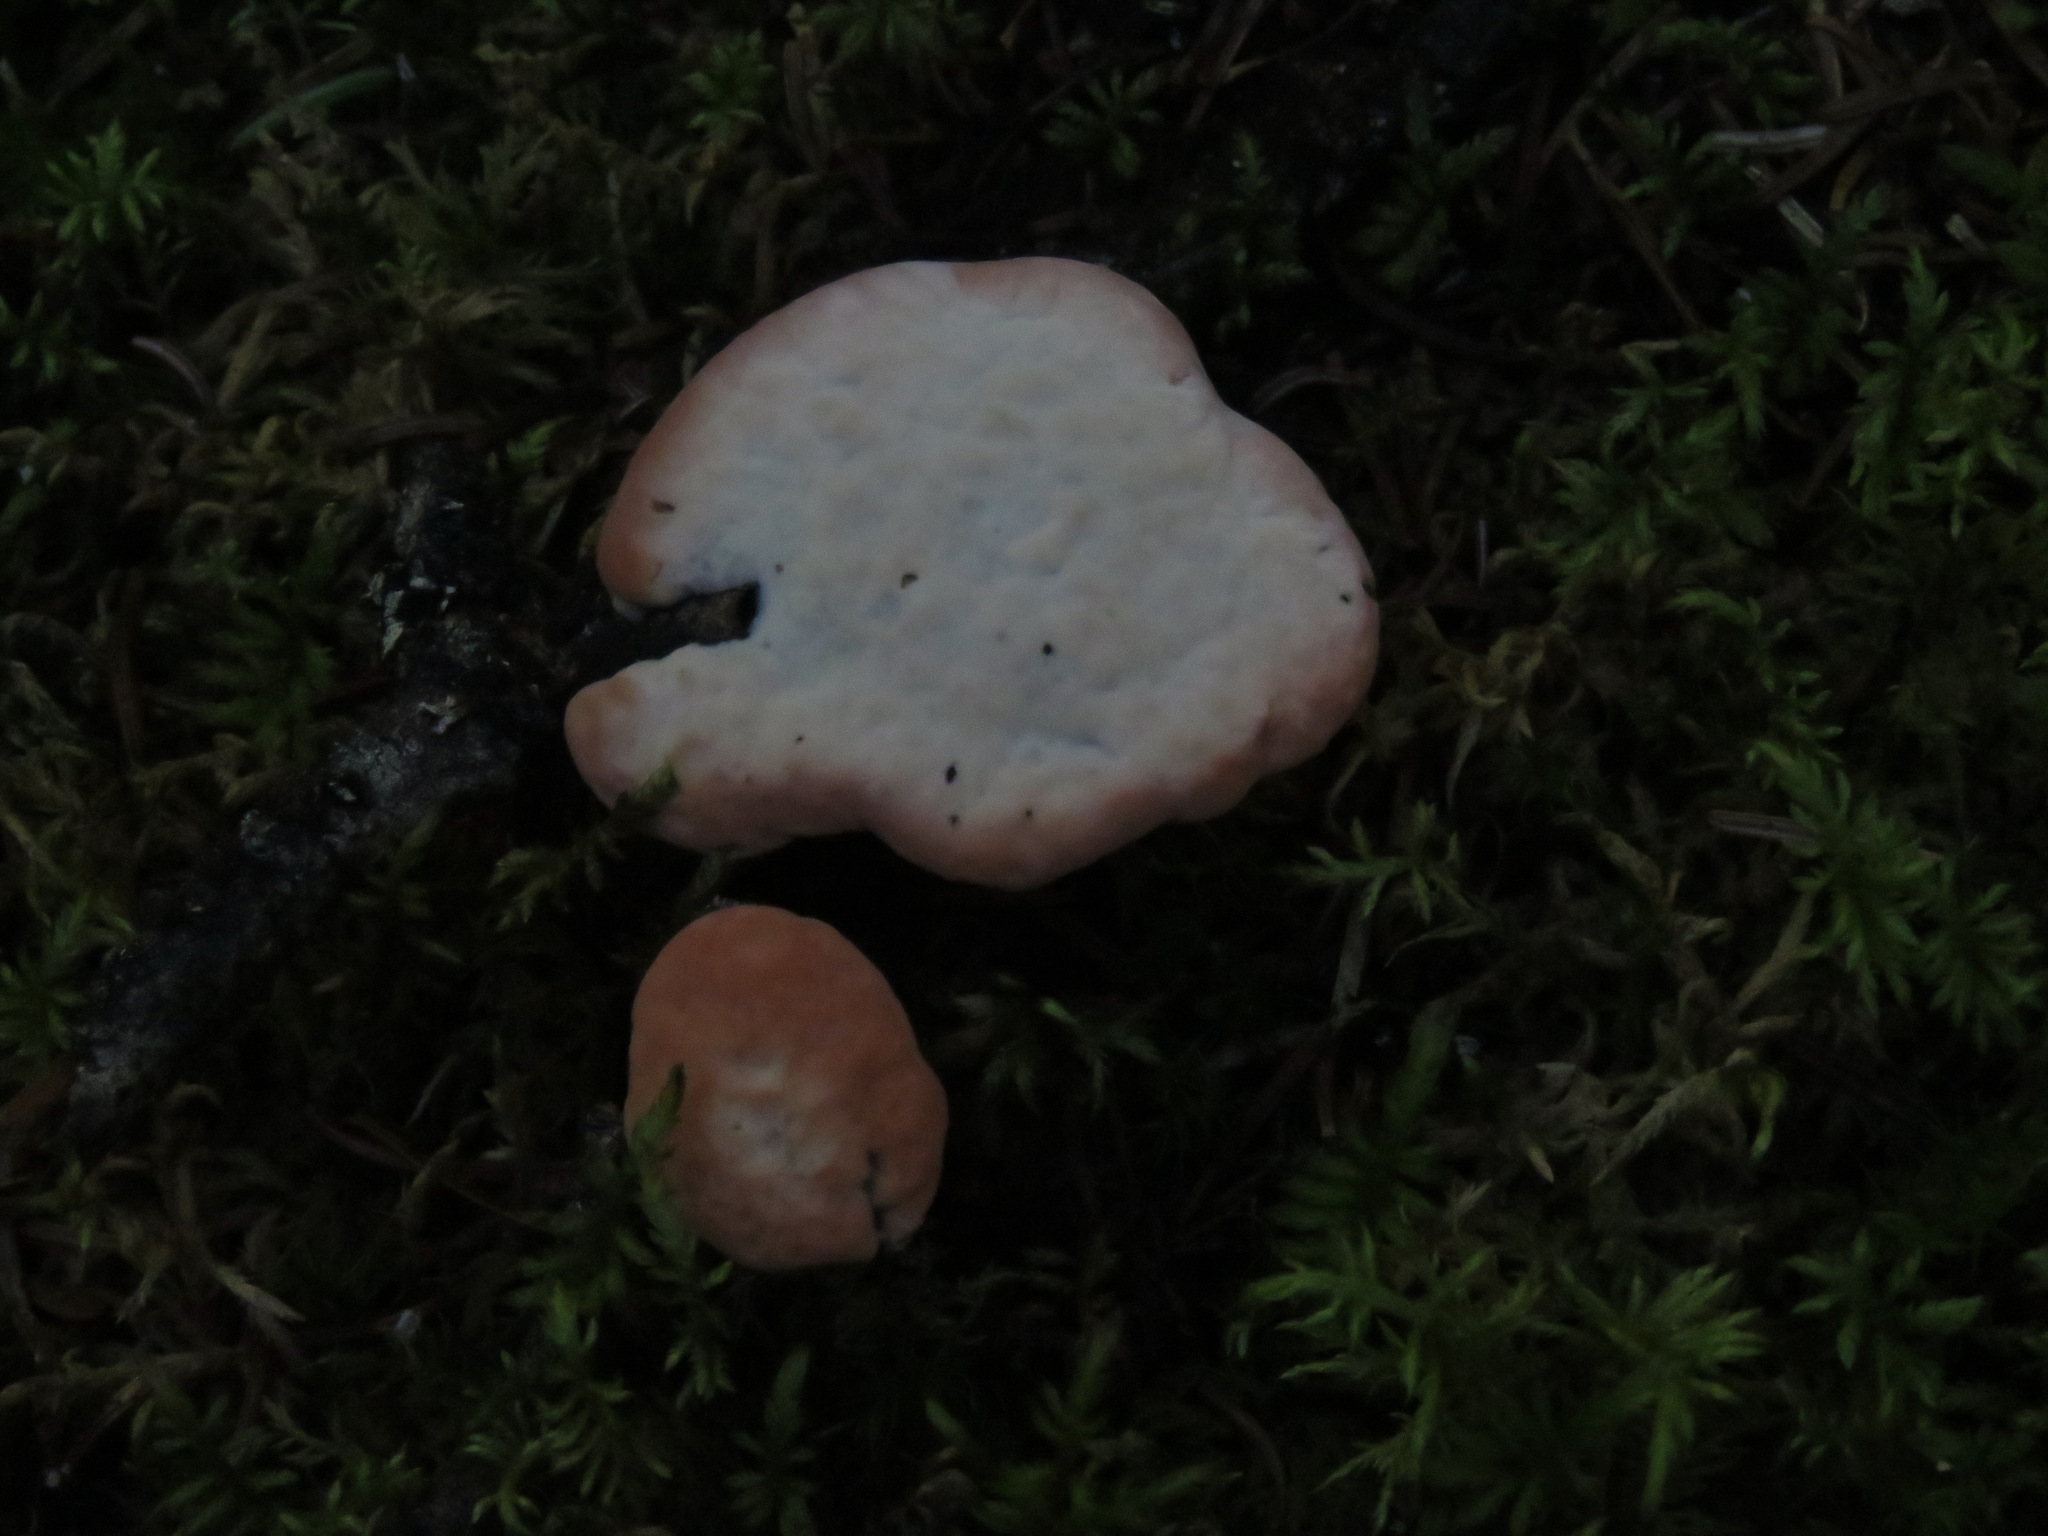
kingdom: Fungi
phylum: Basidiomycota
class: Agaricomycetes
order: Thelephorales
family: Bankeraceae
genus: Hydnellum
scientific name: Hydnellum peckii
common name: Devil's tooth
